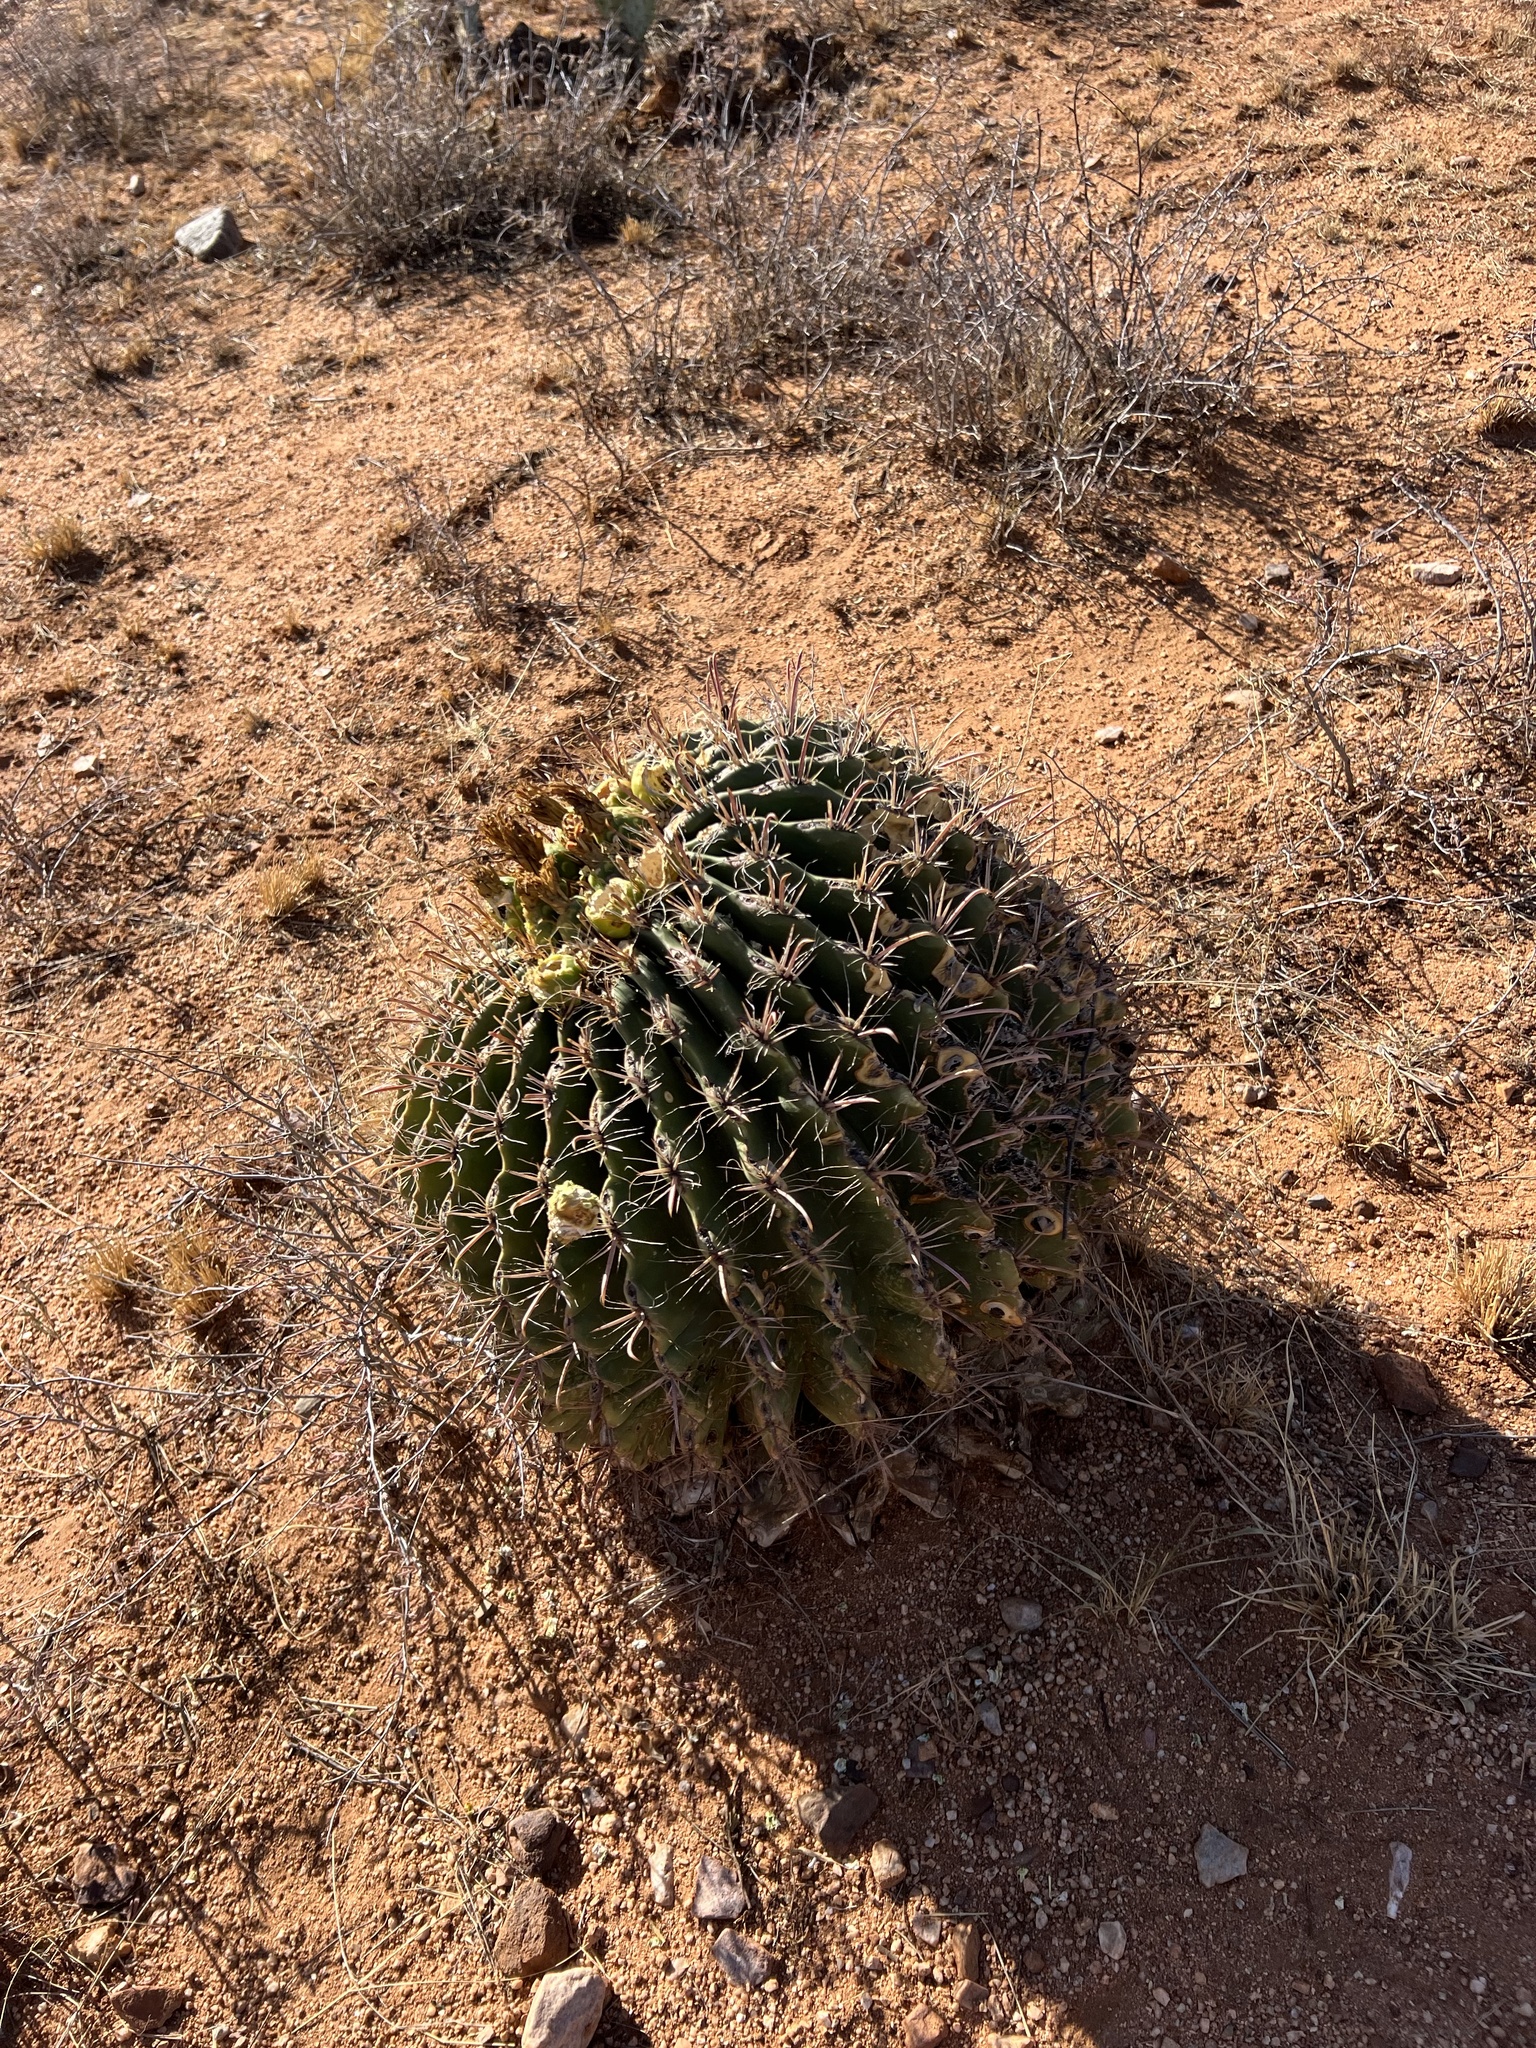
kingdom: Plantae
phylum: Tracheophyta
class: Magnoliopsida
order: Caryophyllales
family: Cactaceae
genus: Ferocactus
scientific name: Ferocactus wislizeni
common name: Candy barrel cactus
